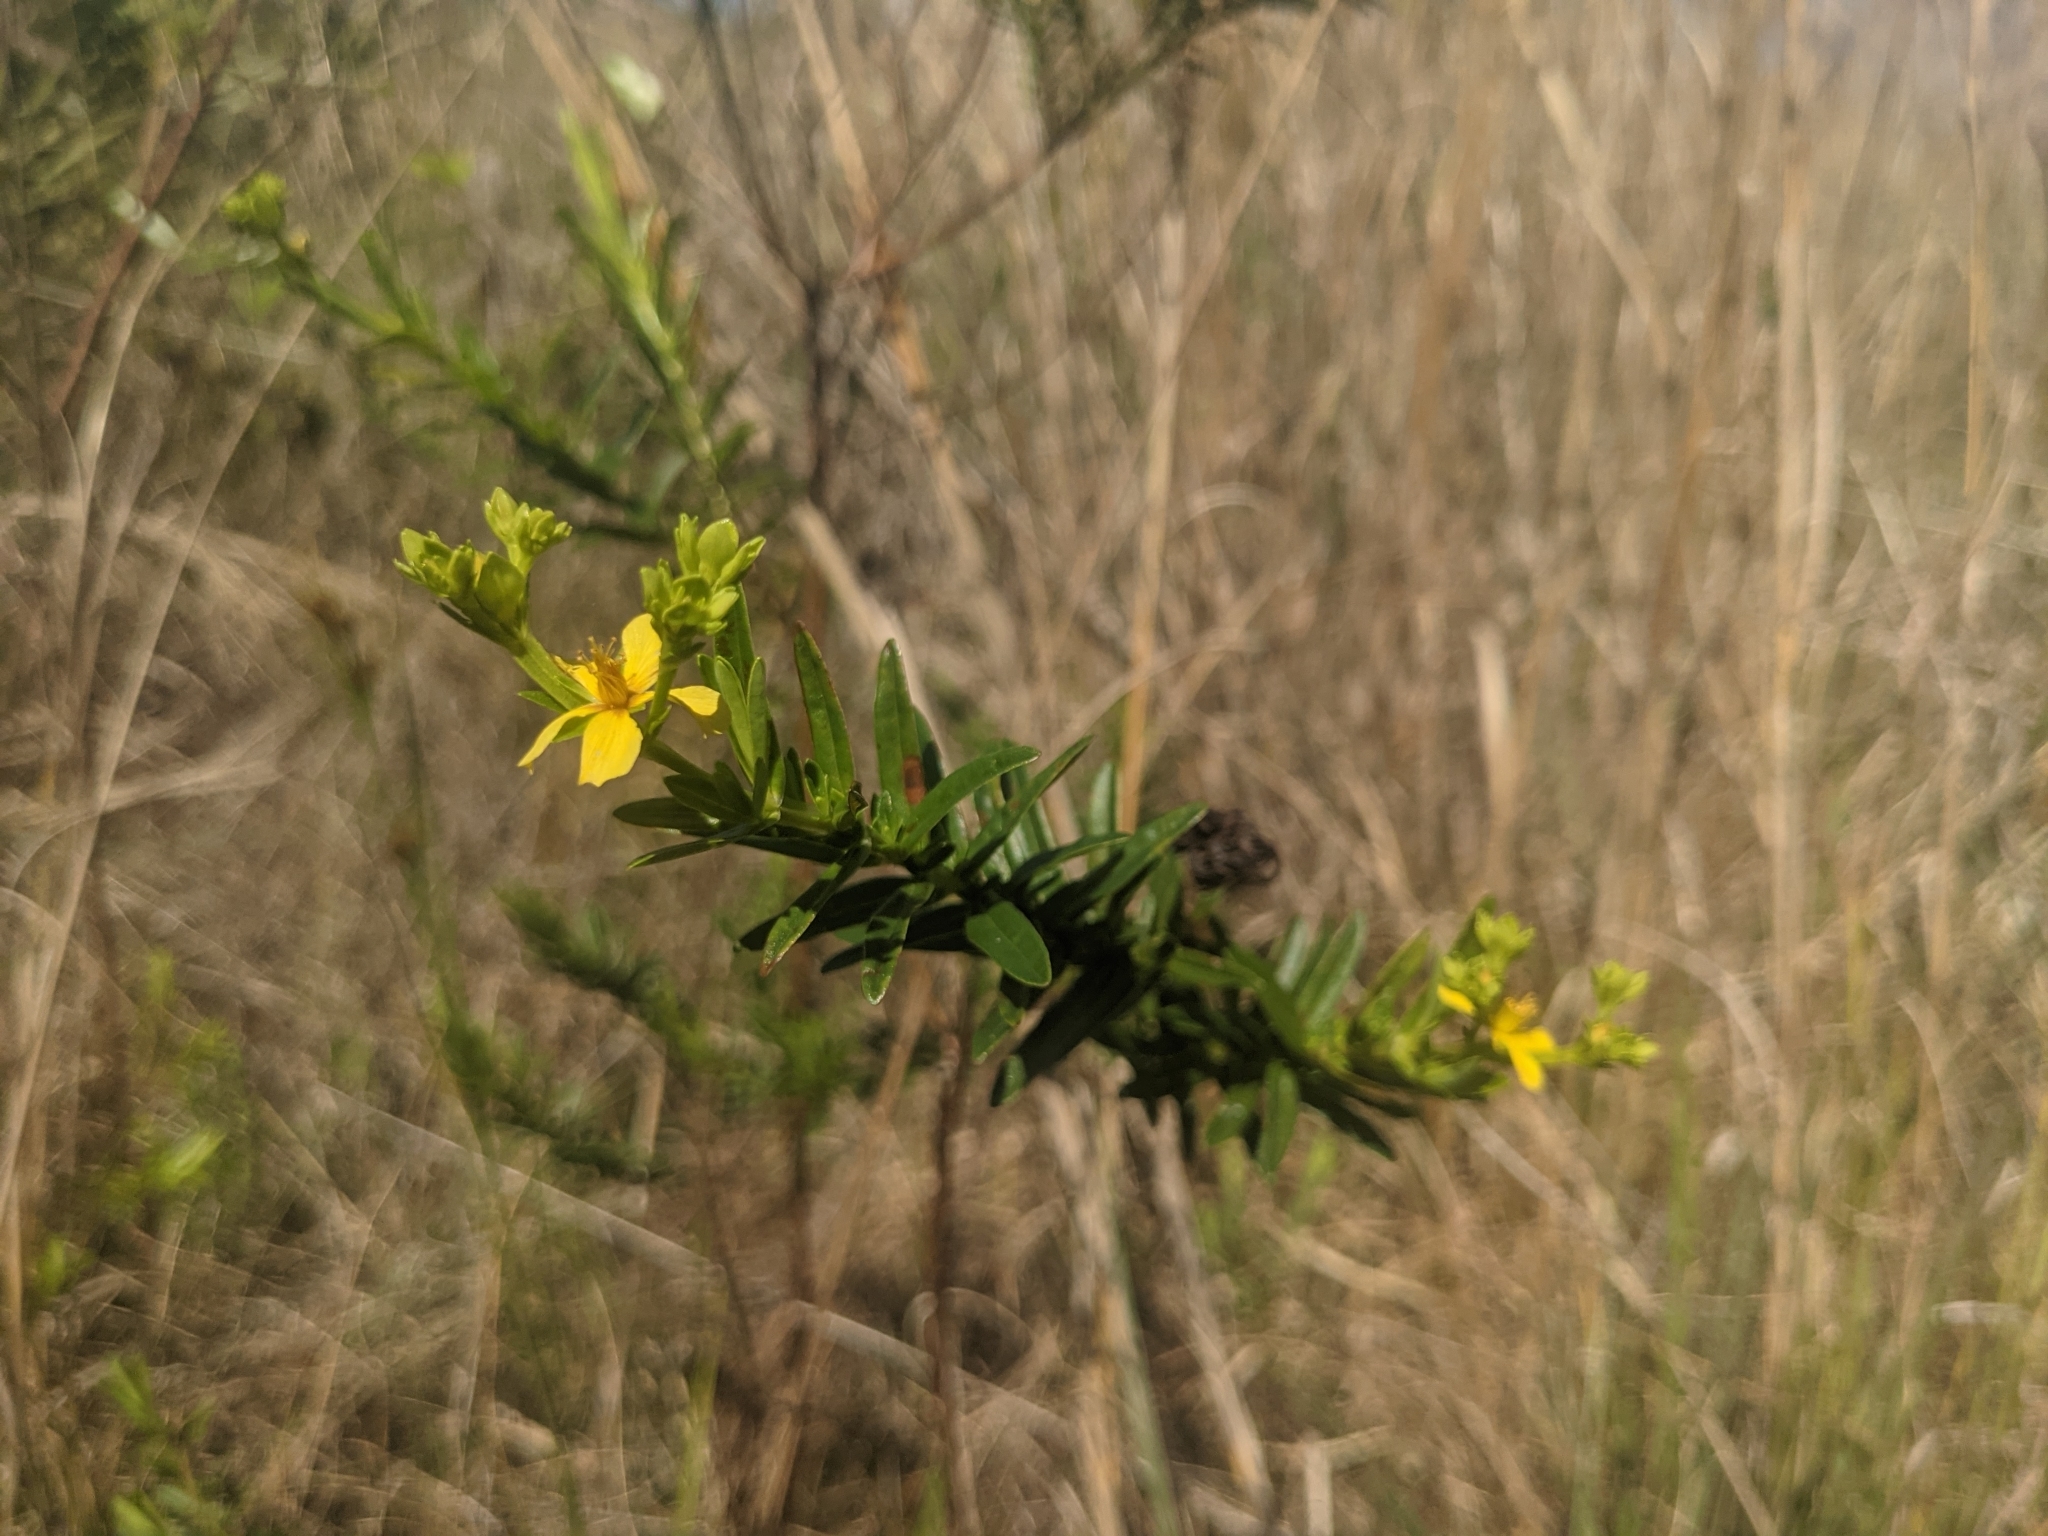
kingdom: Plantae
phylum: Tracheophyta
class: Magnoliopsida
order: Malpighiales
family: Hypericaceae
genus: Hypericum
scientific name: Hypericum cistifolium
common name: Round-pod st. john's-wort
